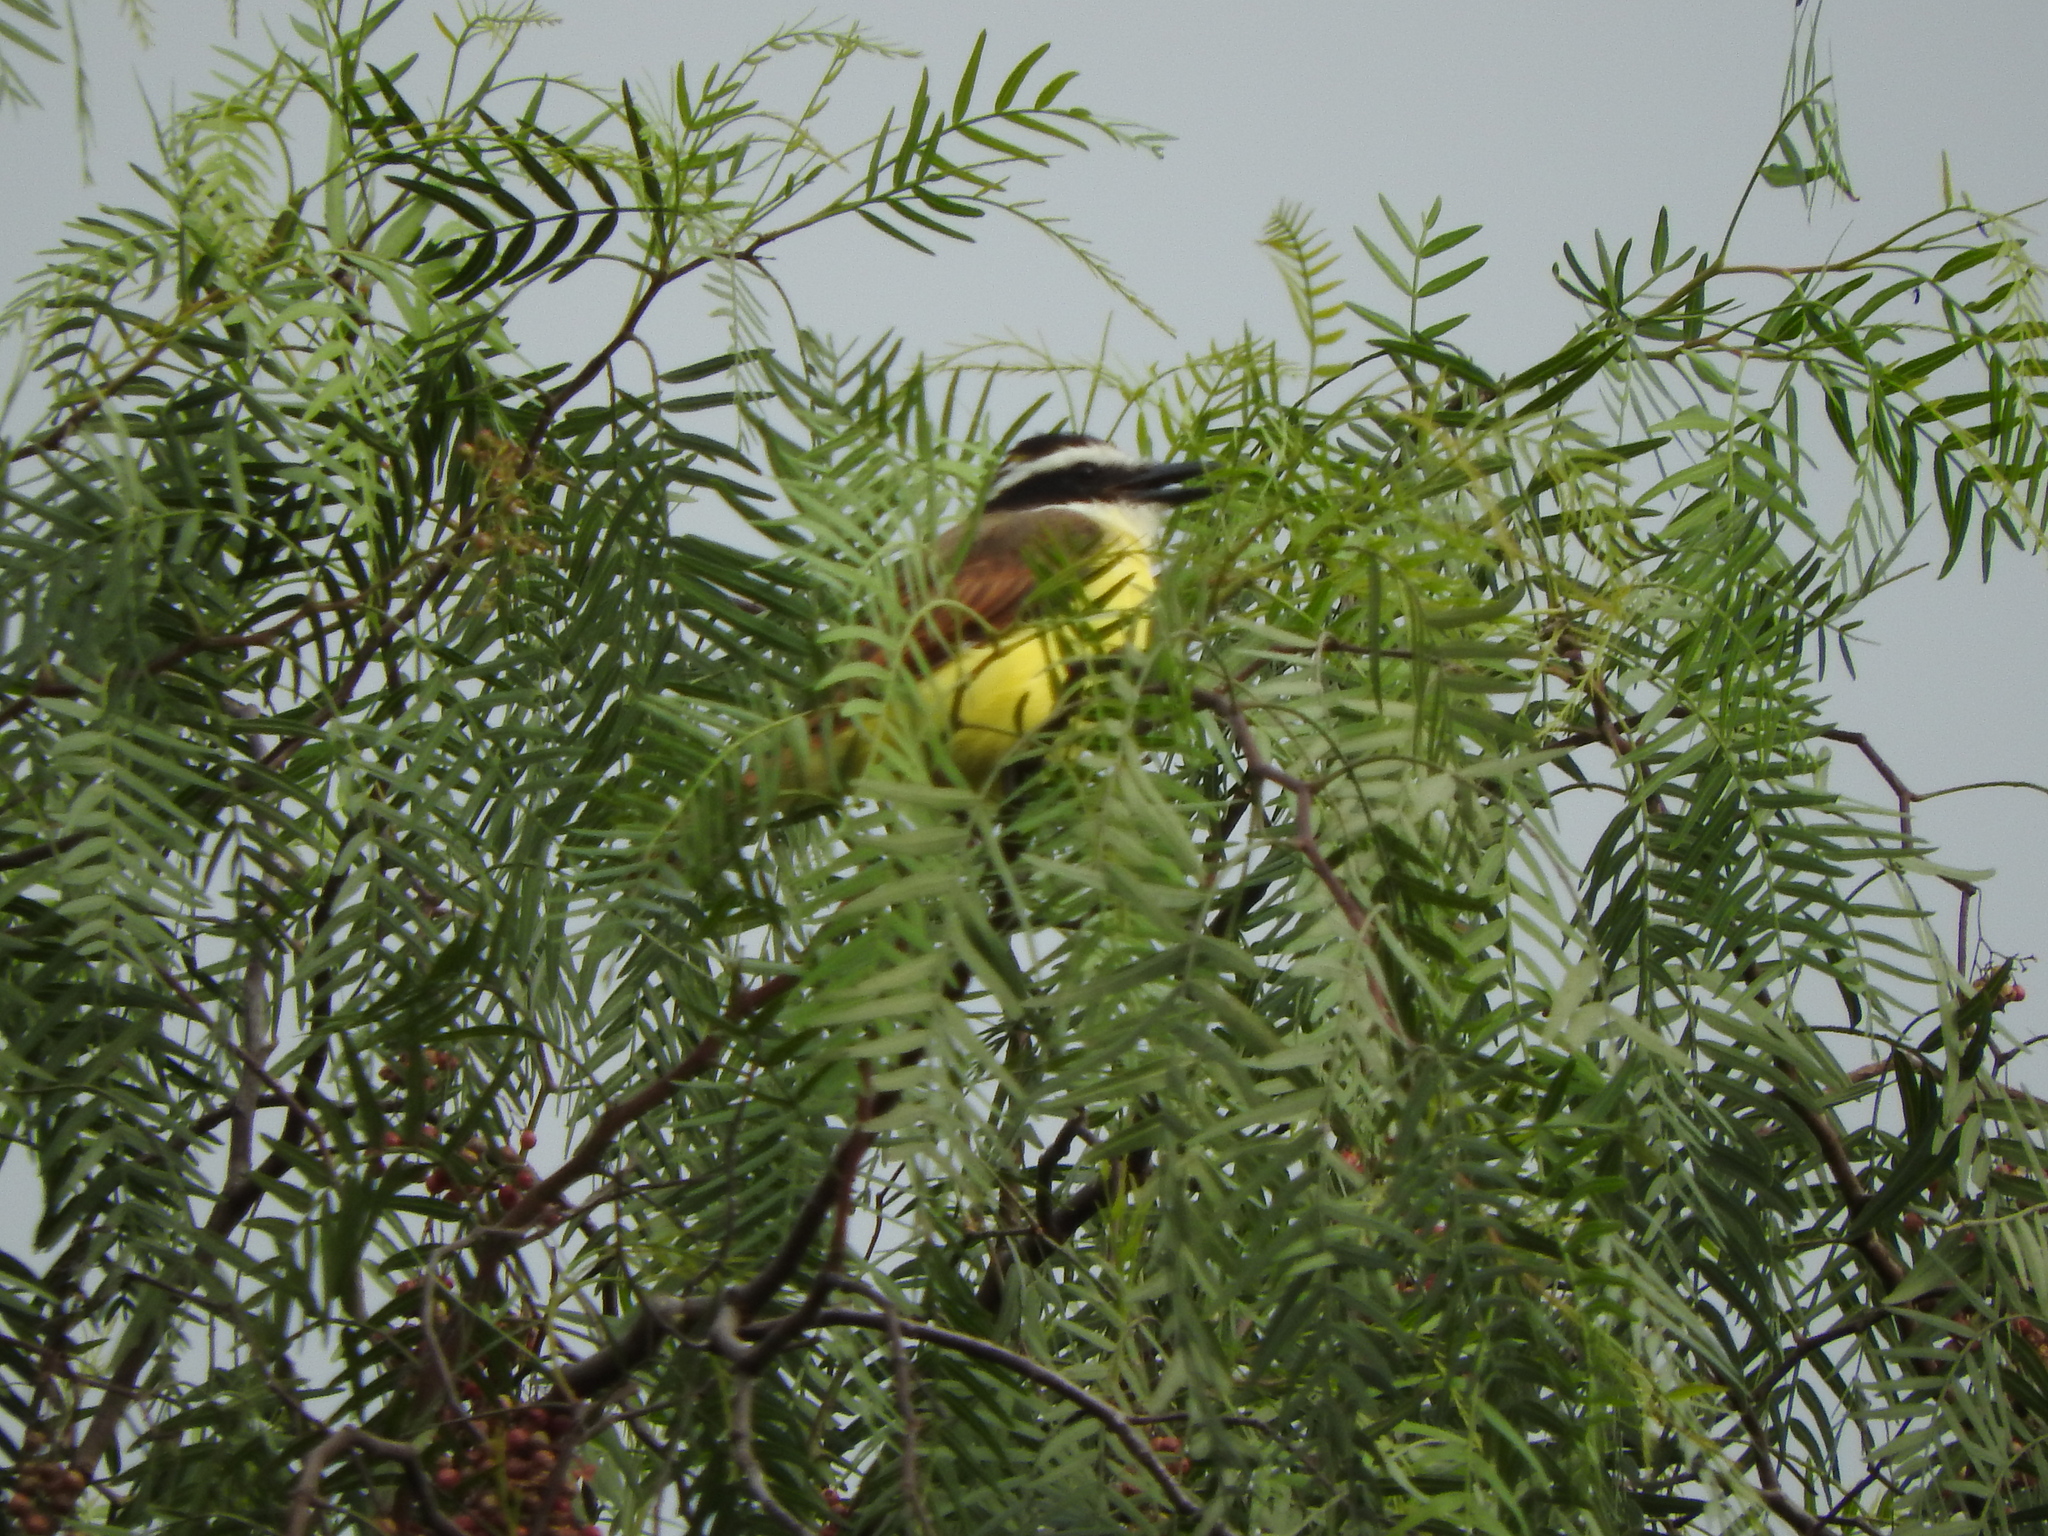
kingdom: Animalia
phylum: Chordata
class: Aves
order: Passeriformes
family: Tyrannidae
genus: Pitangus
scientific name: Pitangus sulphuratus
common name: Great kiskadee
